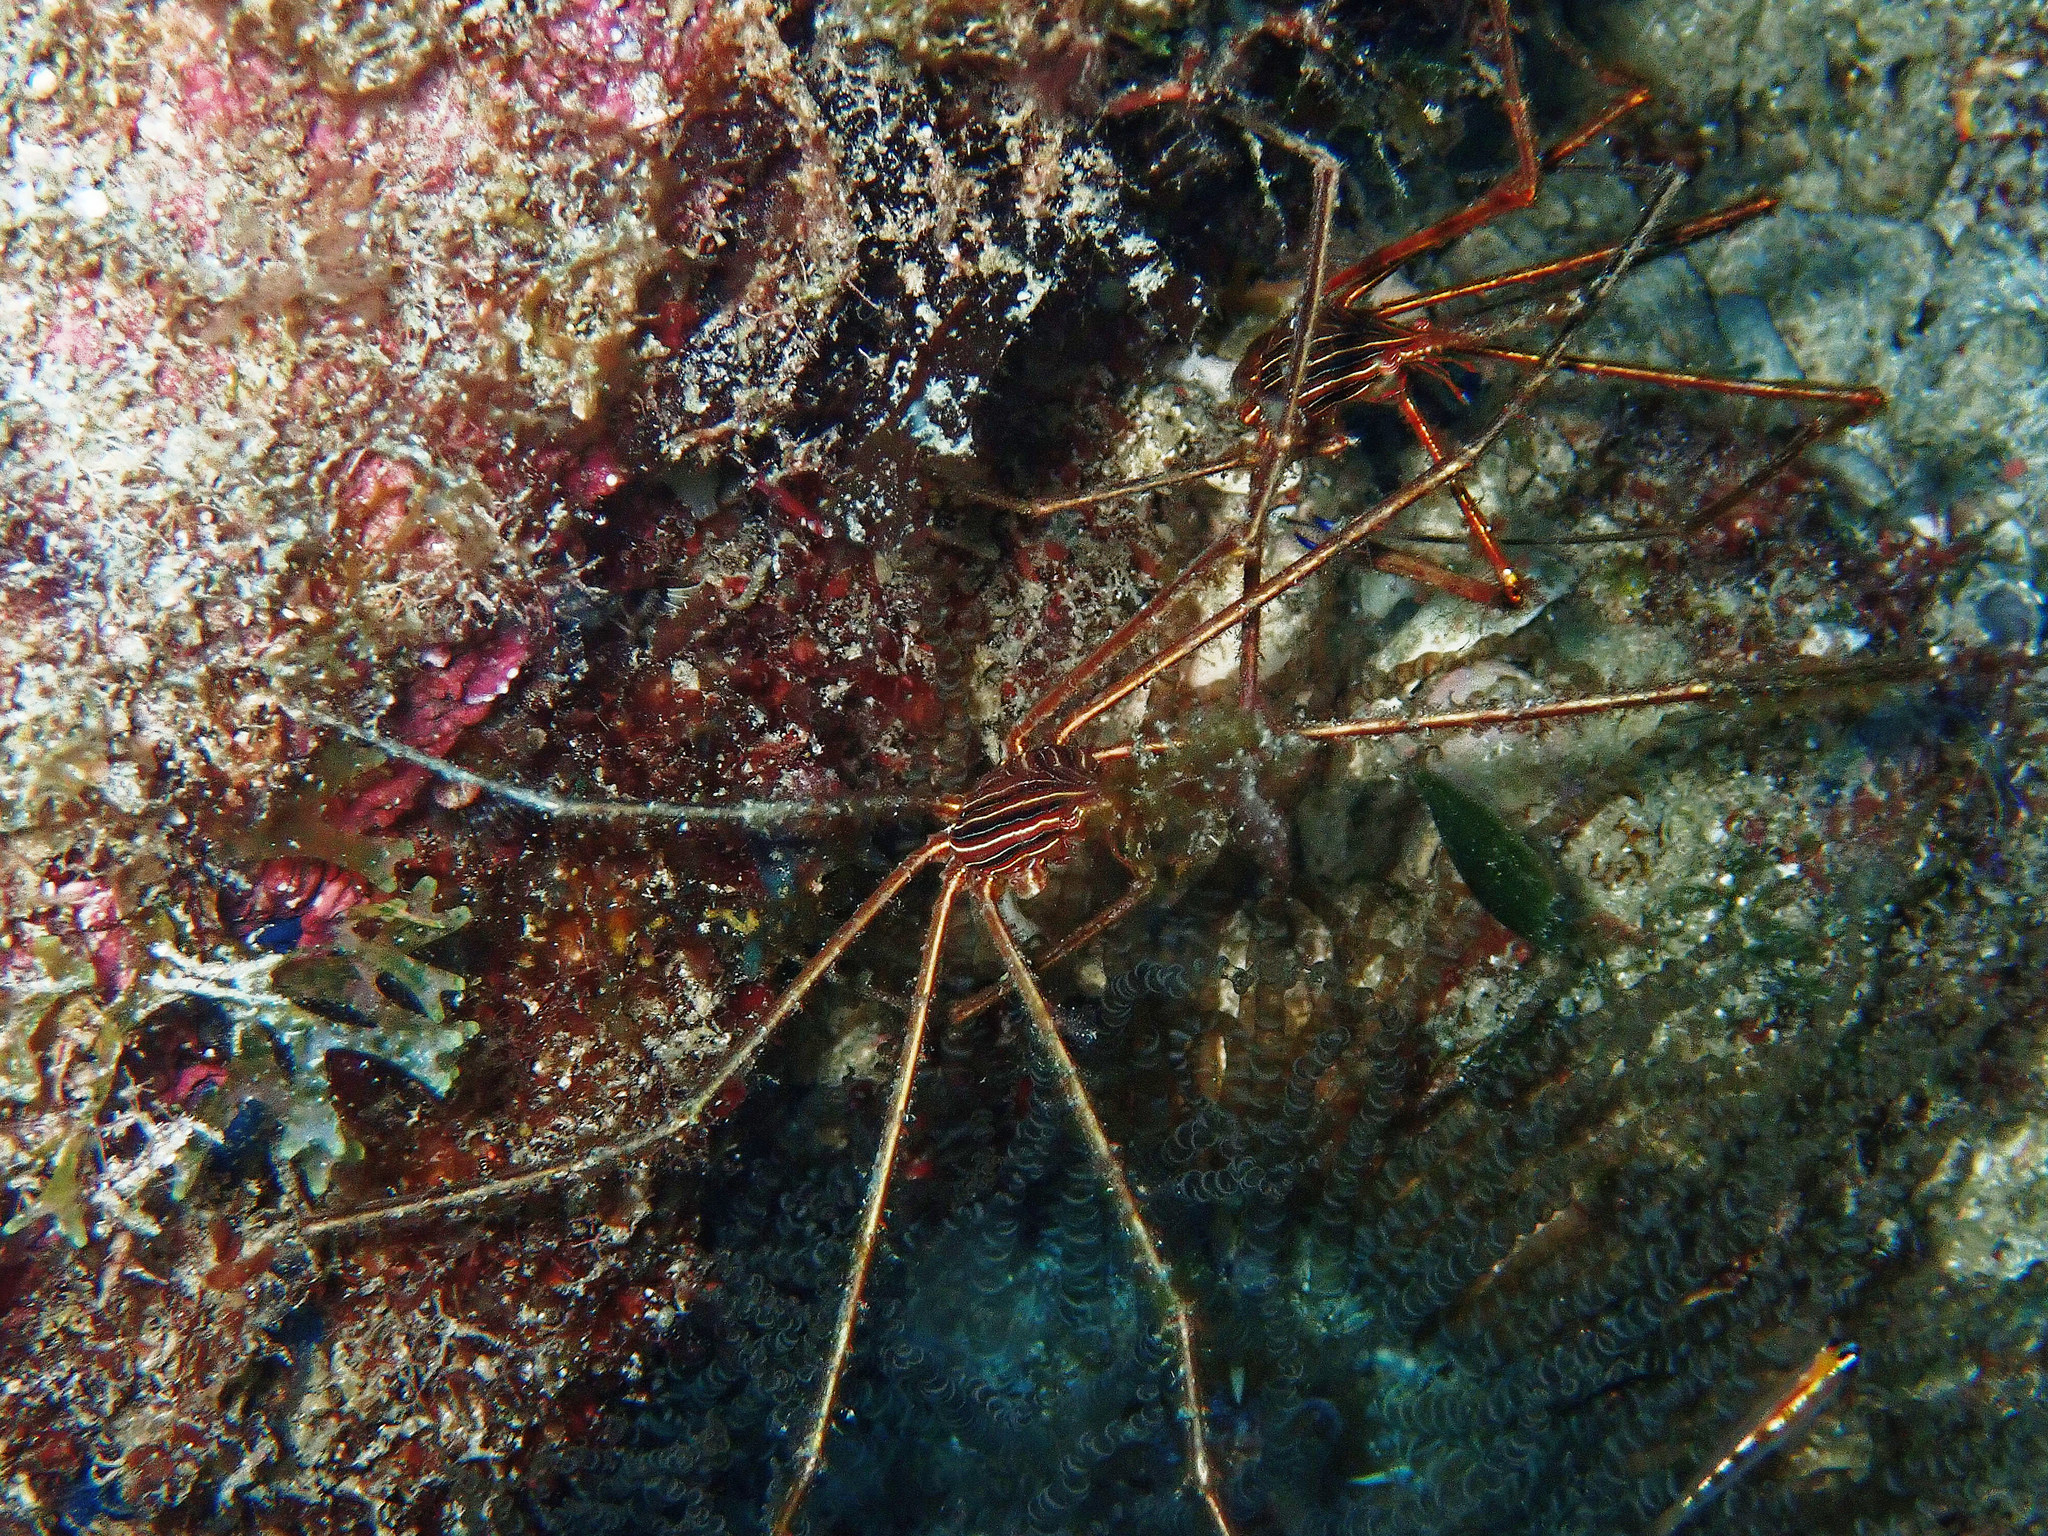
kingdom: Animalia
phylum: Arthropoda
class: Malacostraca
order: Decapoda
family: Inachoididae
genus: Stenorhynchus
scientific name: Stenorhynchus seticornis
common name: Arrow crab
